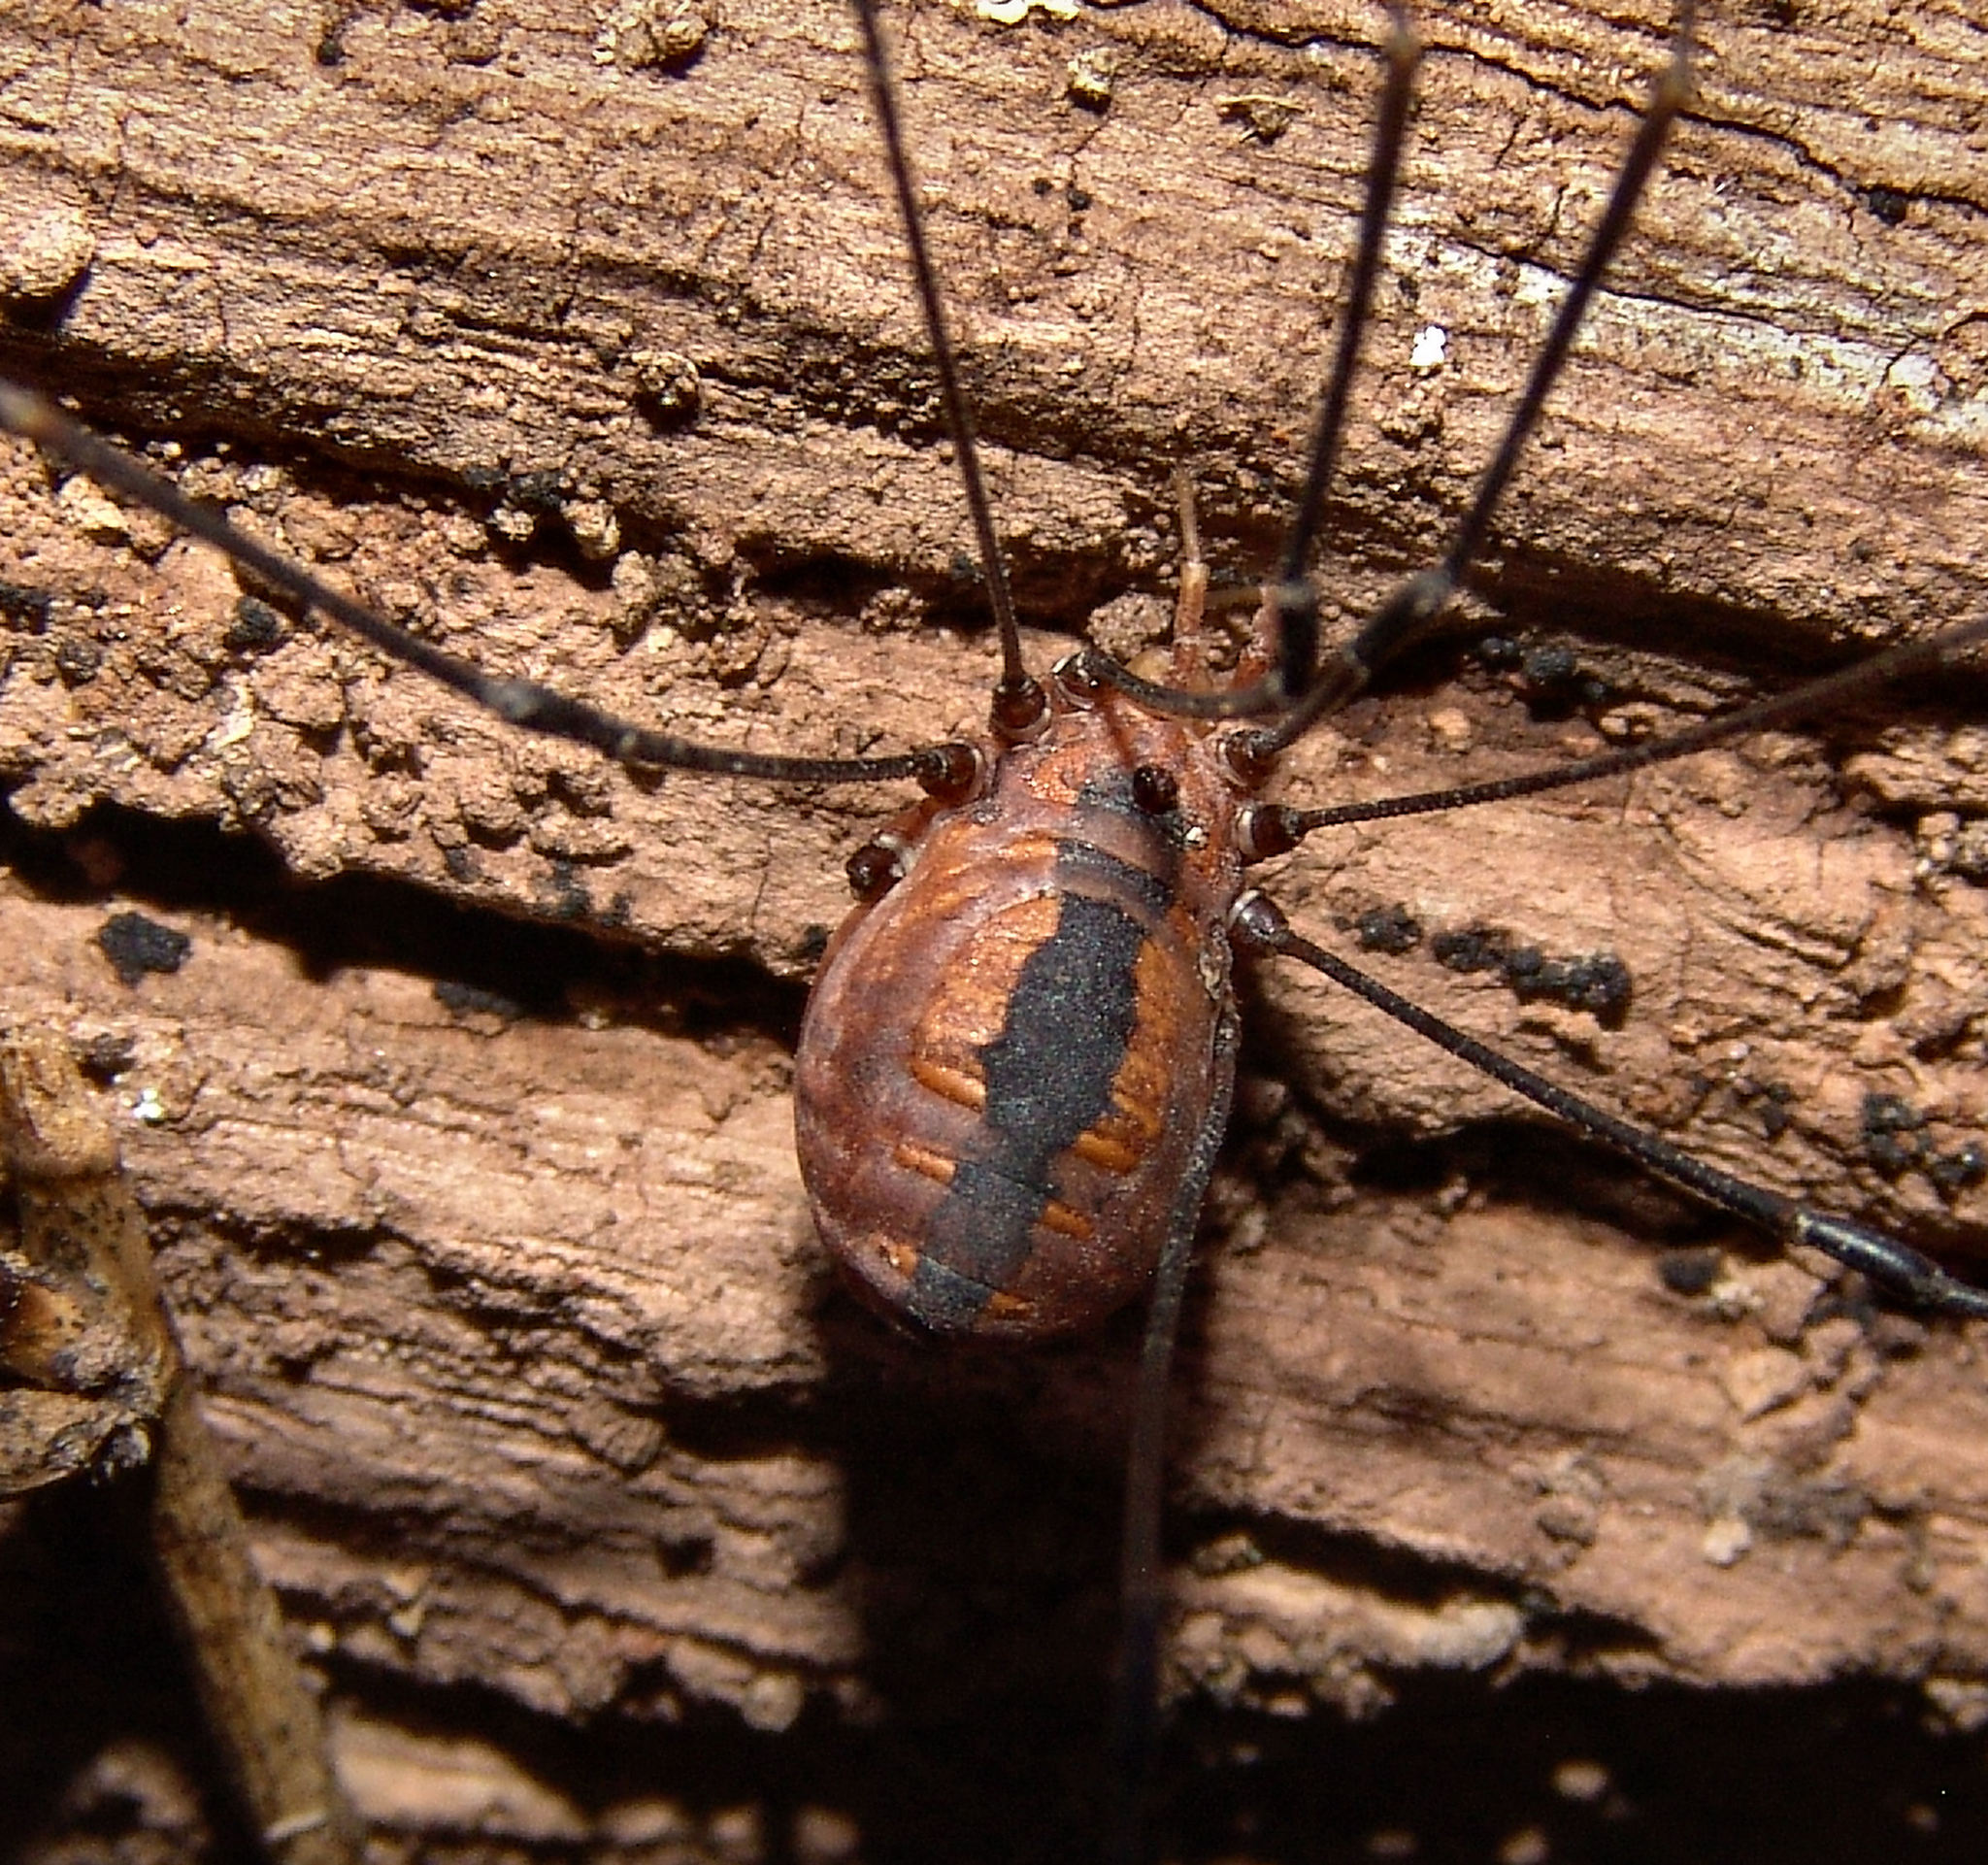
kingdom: Animalia
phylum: Arthropoda
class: Arachnida
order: Opiliones
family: Sclerosomatidae
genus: Leiobunum
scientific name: Leiobunum vittatum
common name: Eastern harvestman
